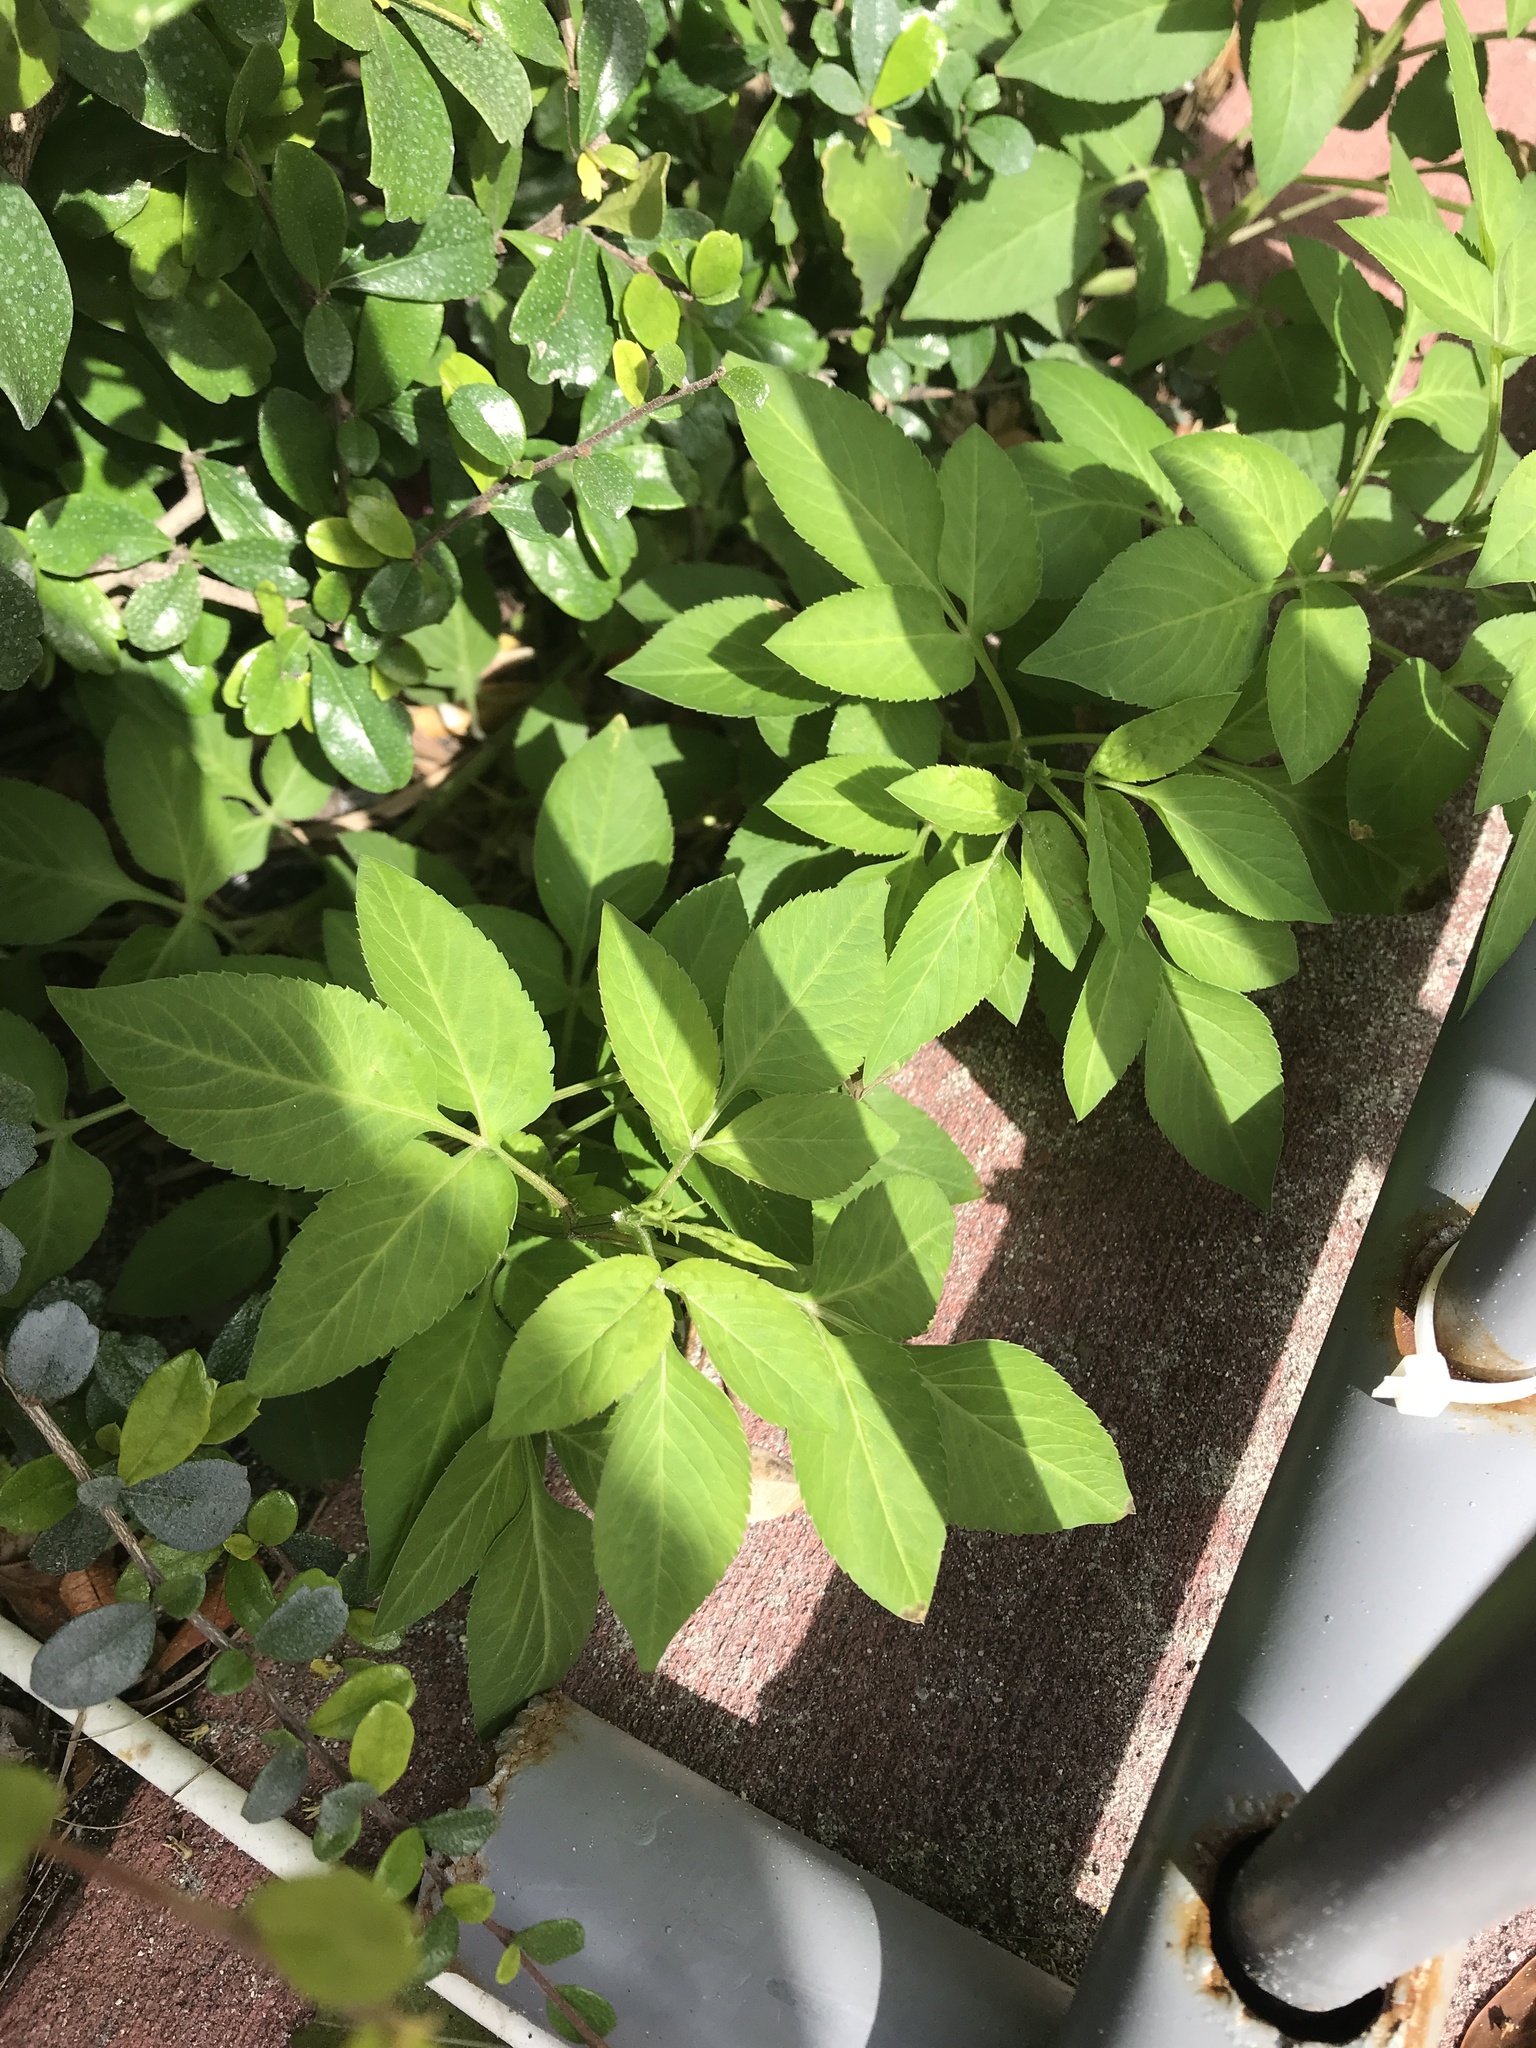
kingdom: Plantae
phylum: Tracheophyta
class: Magnoliopsida
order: Asterales
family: Asteraceae
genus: Bidens
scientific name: Bidens alba
